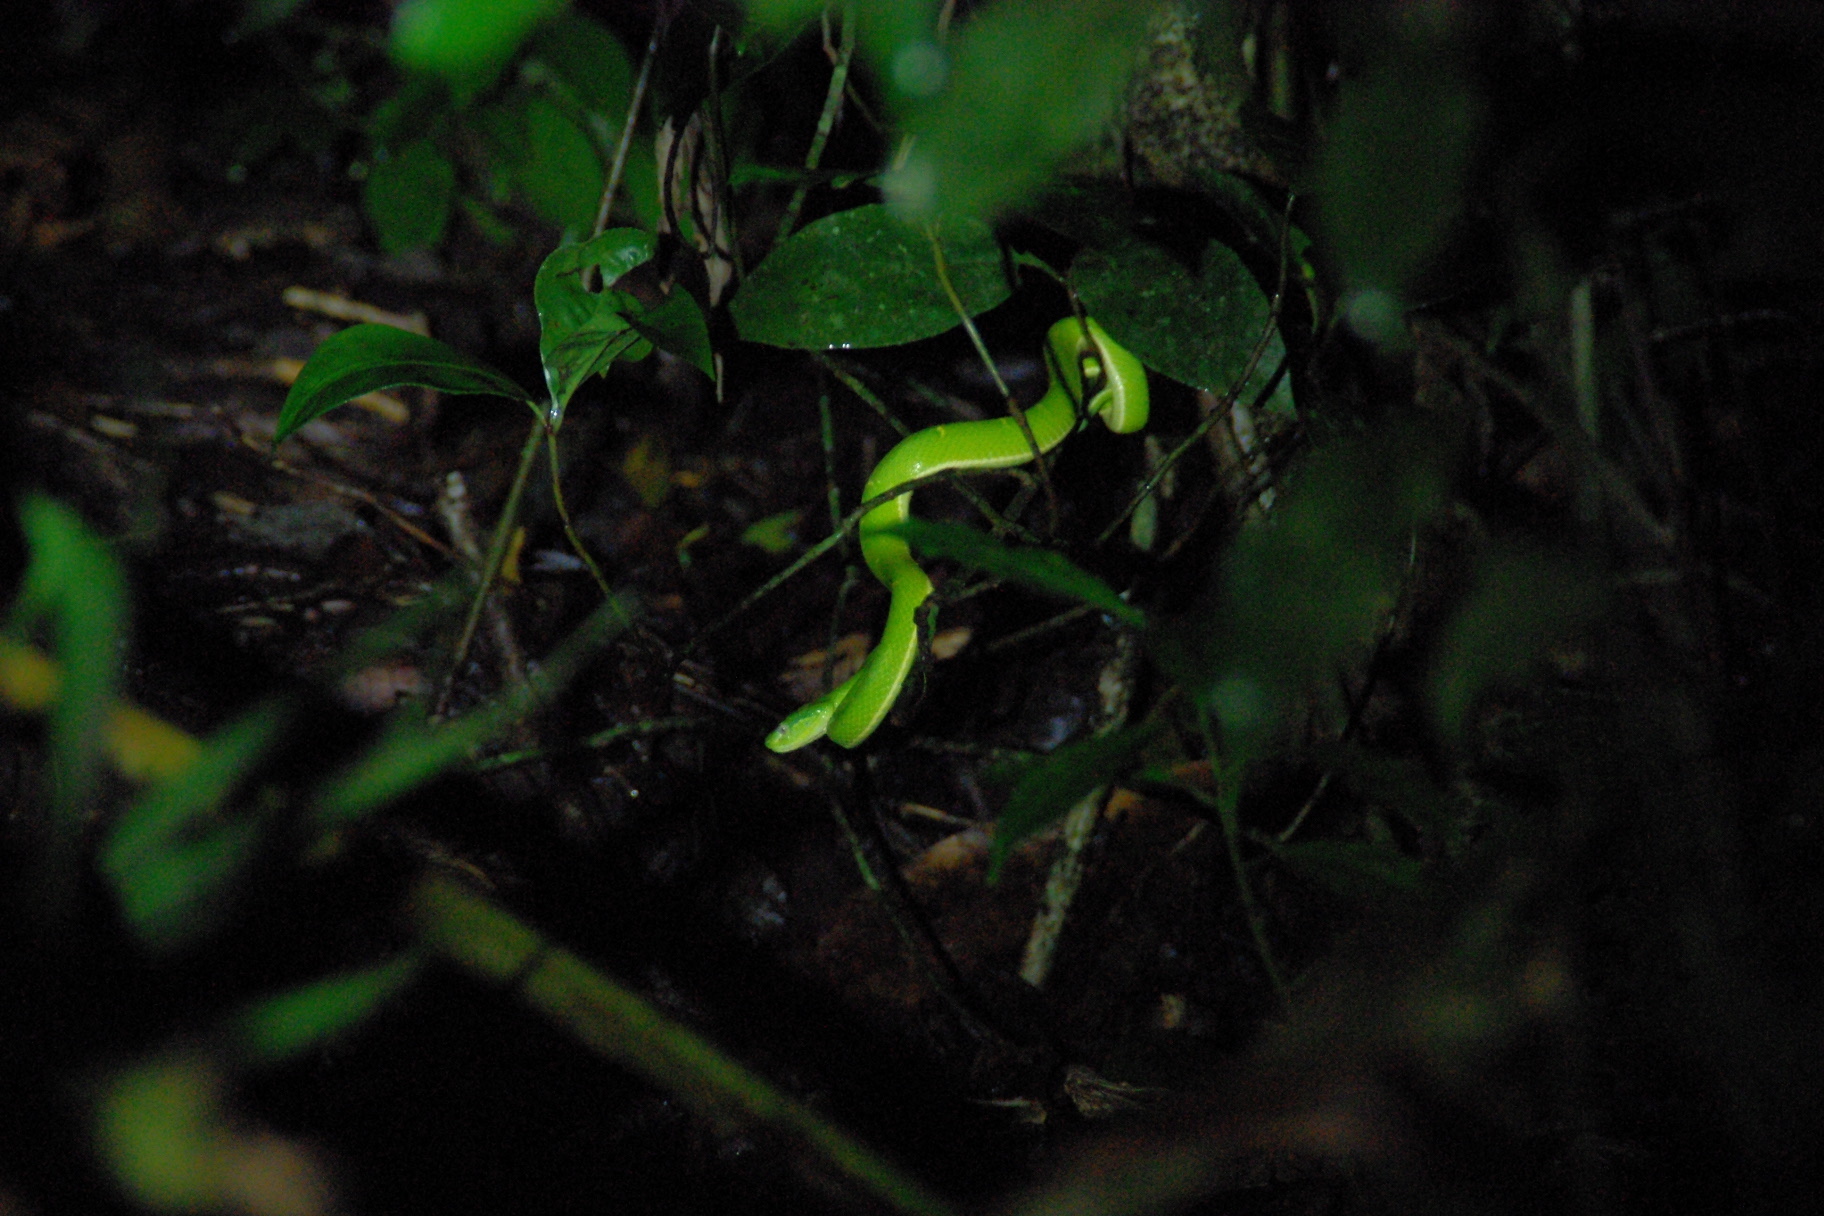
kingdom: Animalia
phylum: Chordata
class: Squamata
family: Viperidae
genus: Bothriechis
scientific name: Bothriechis lateralis
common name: Coffee palm viper
